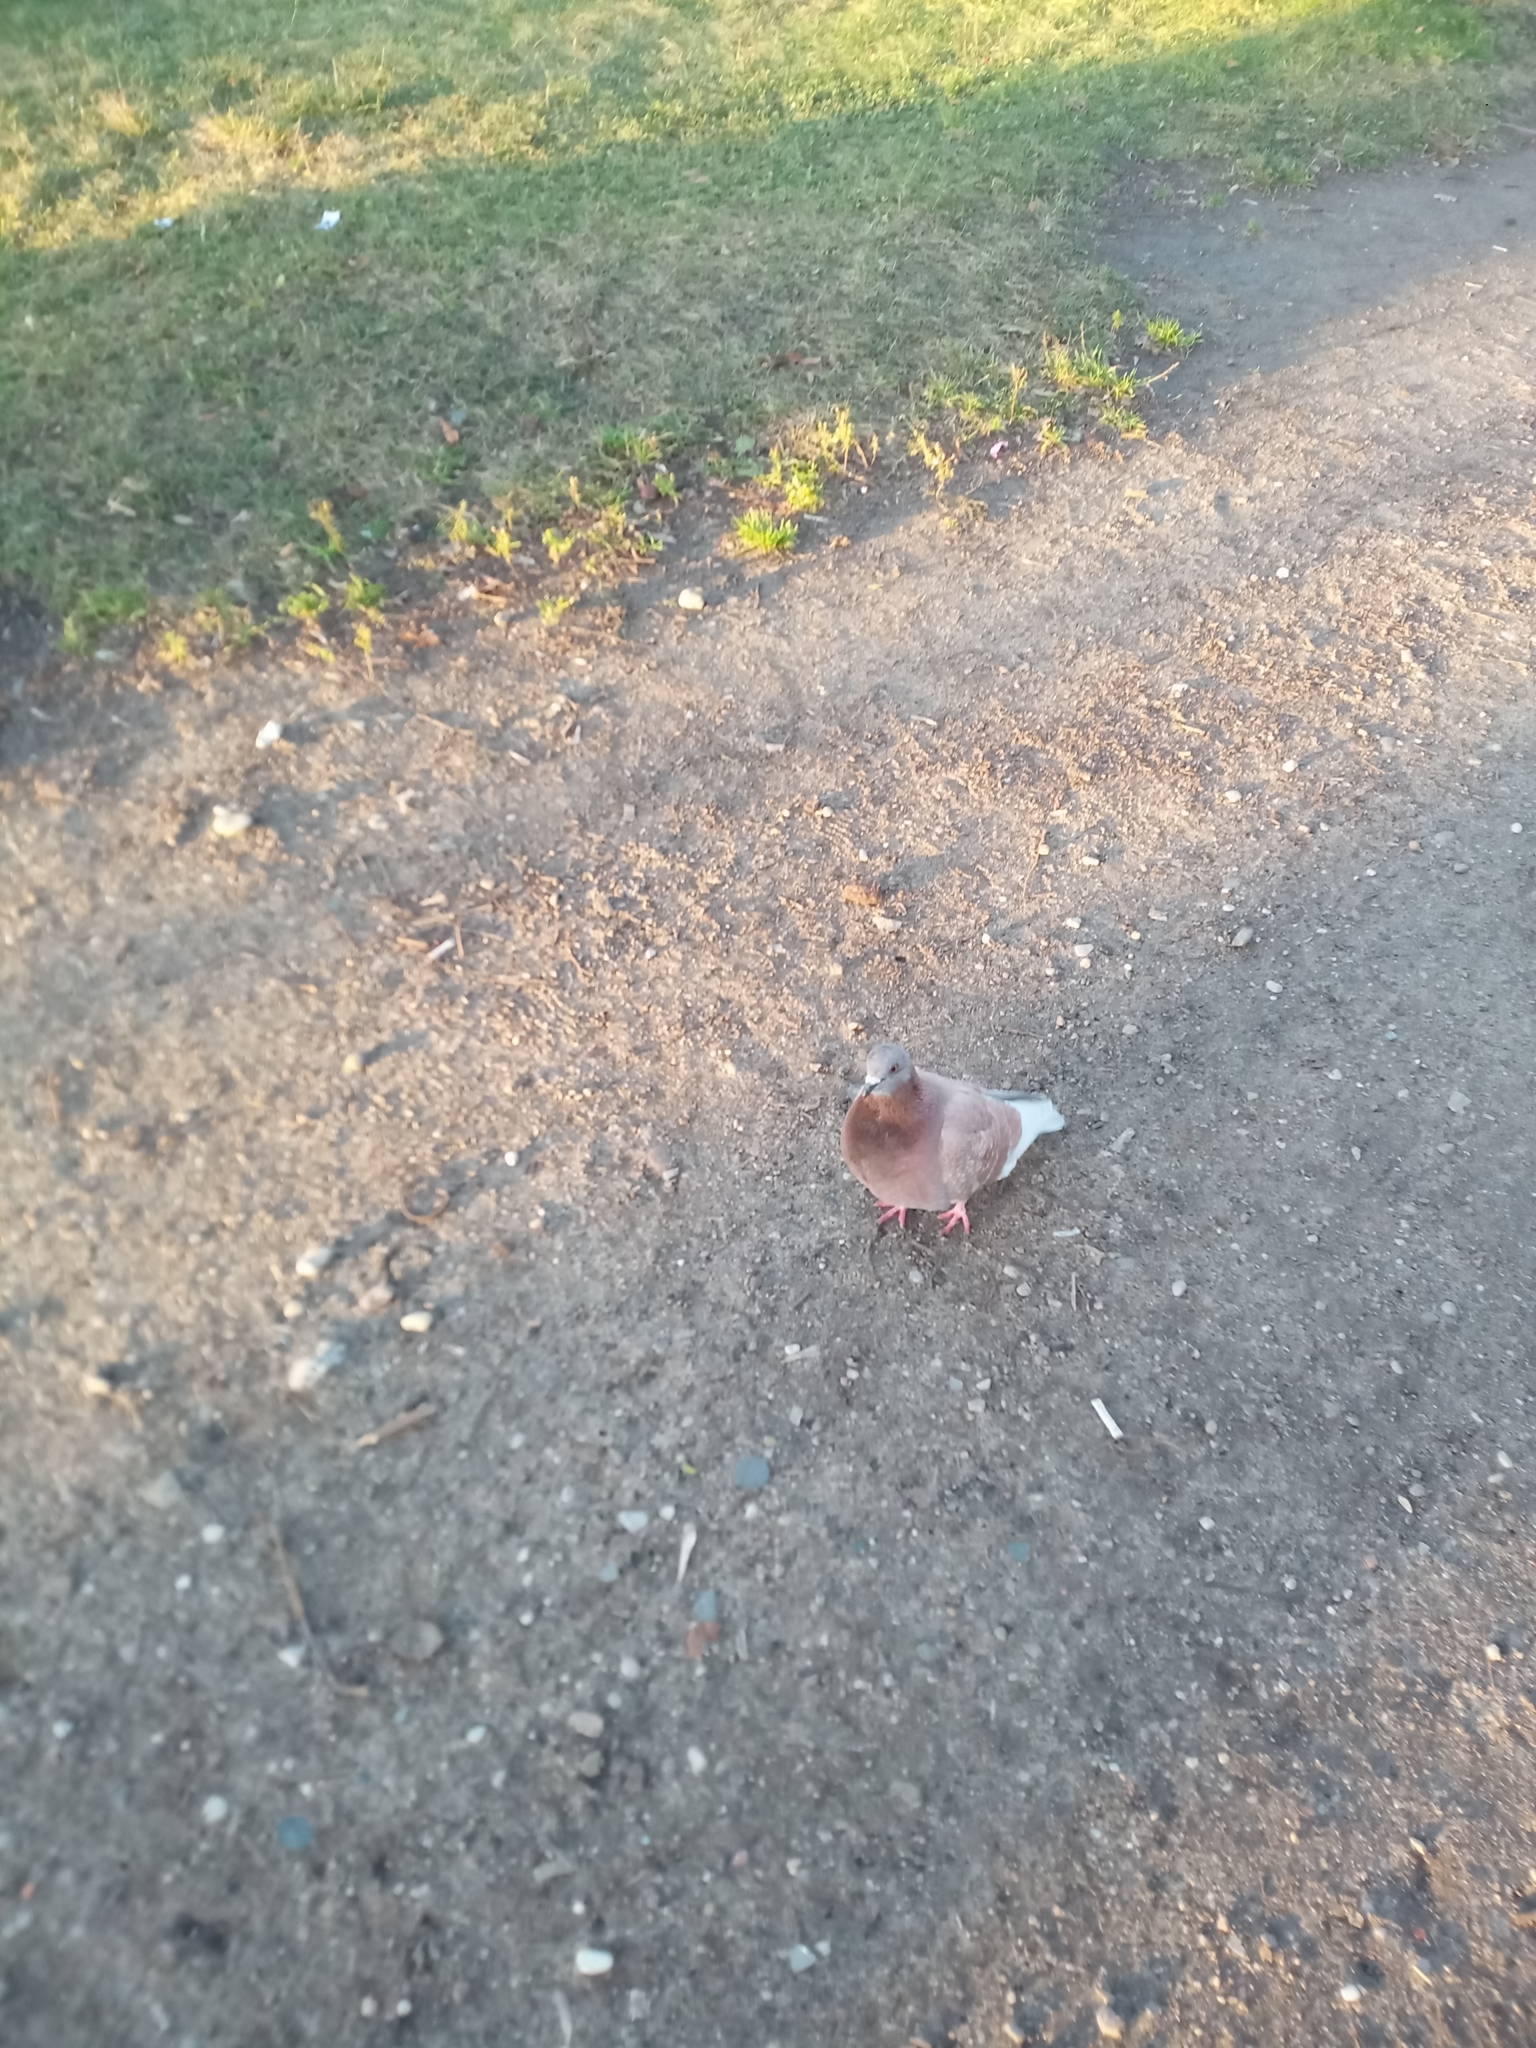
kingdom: Animalia
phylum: Chordata
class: Aves
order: Columbiformes
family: Columbidae
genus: Columba
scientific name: Columba livia
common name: Rock pigeon
